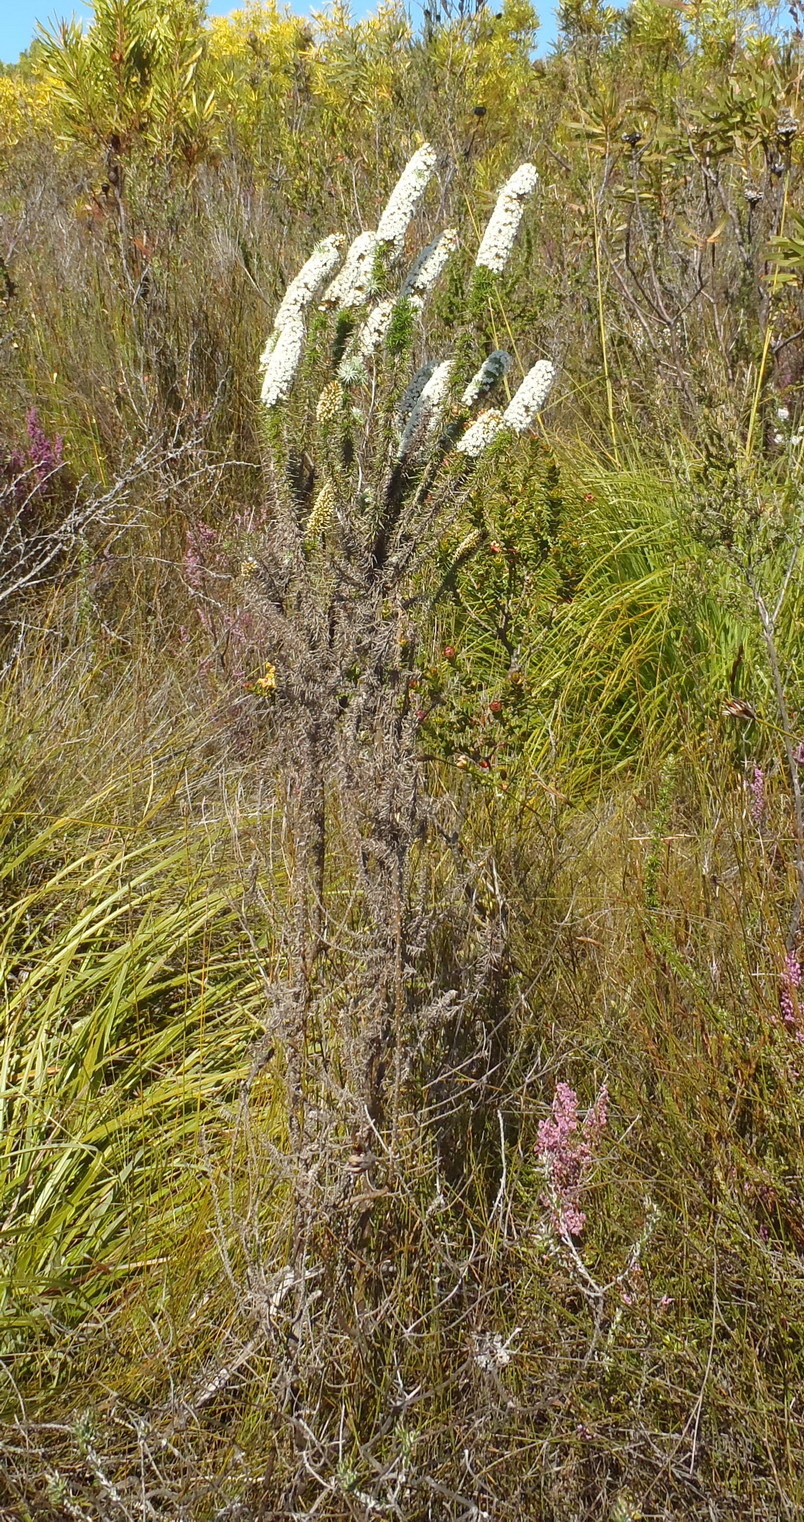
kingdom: Plantae
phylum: Tracheophyta
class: Magnoliopsida
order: Asterales
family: Asteraceae
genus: Stoebe
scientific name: Stoebe alopecuroides
